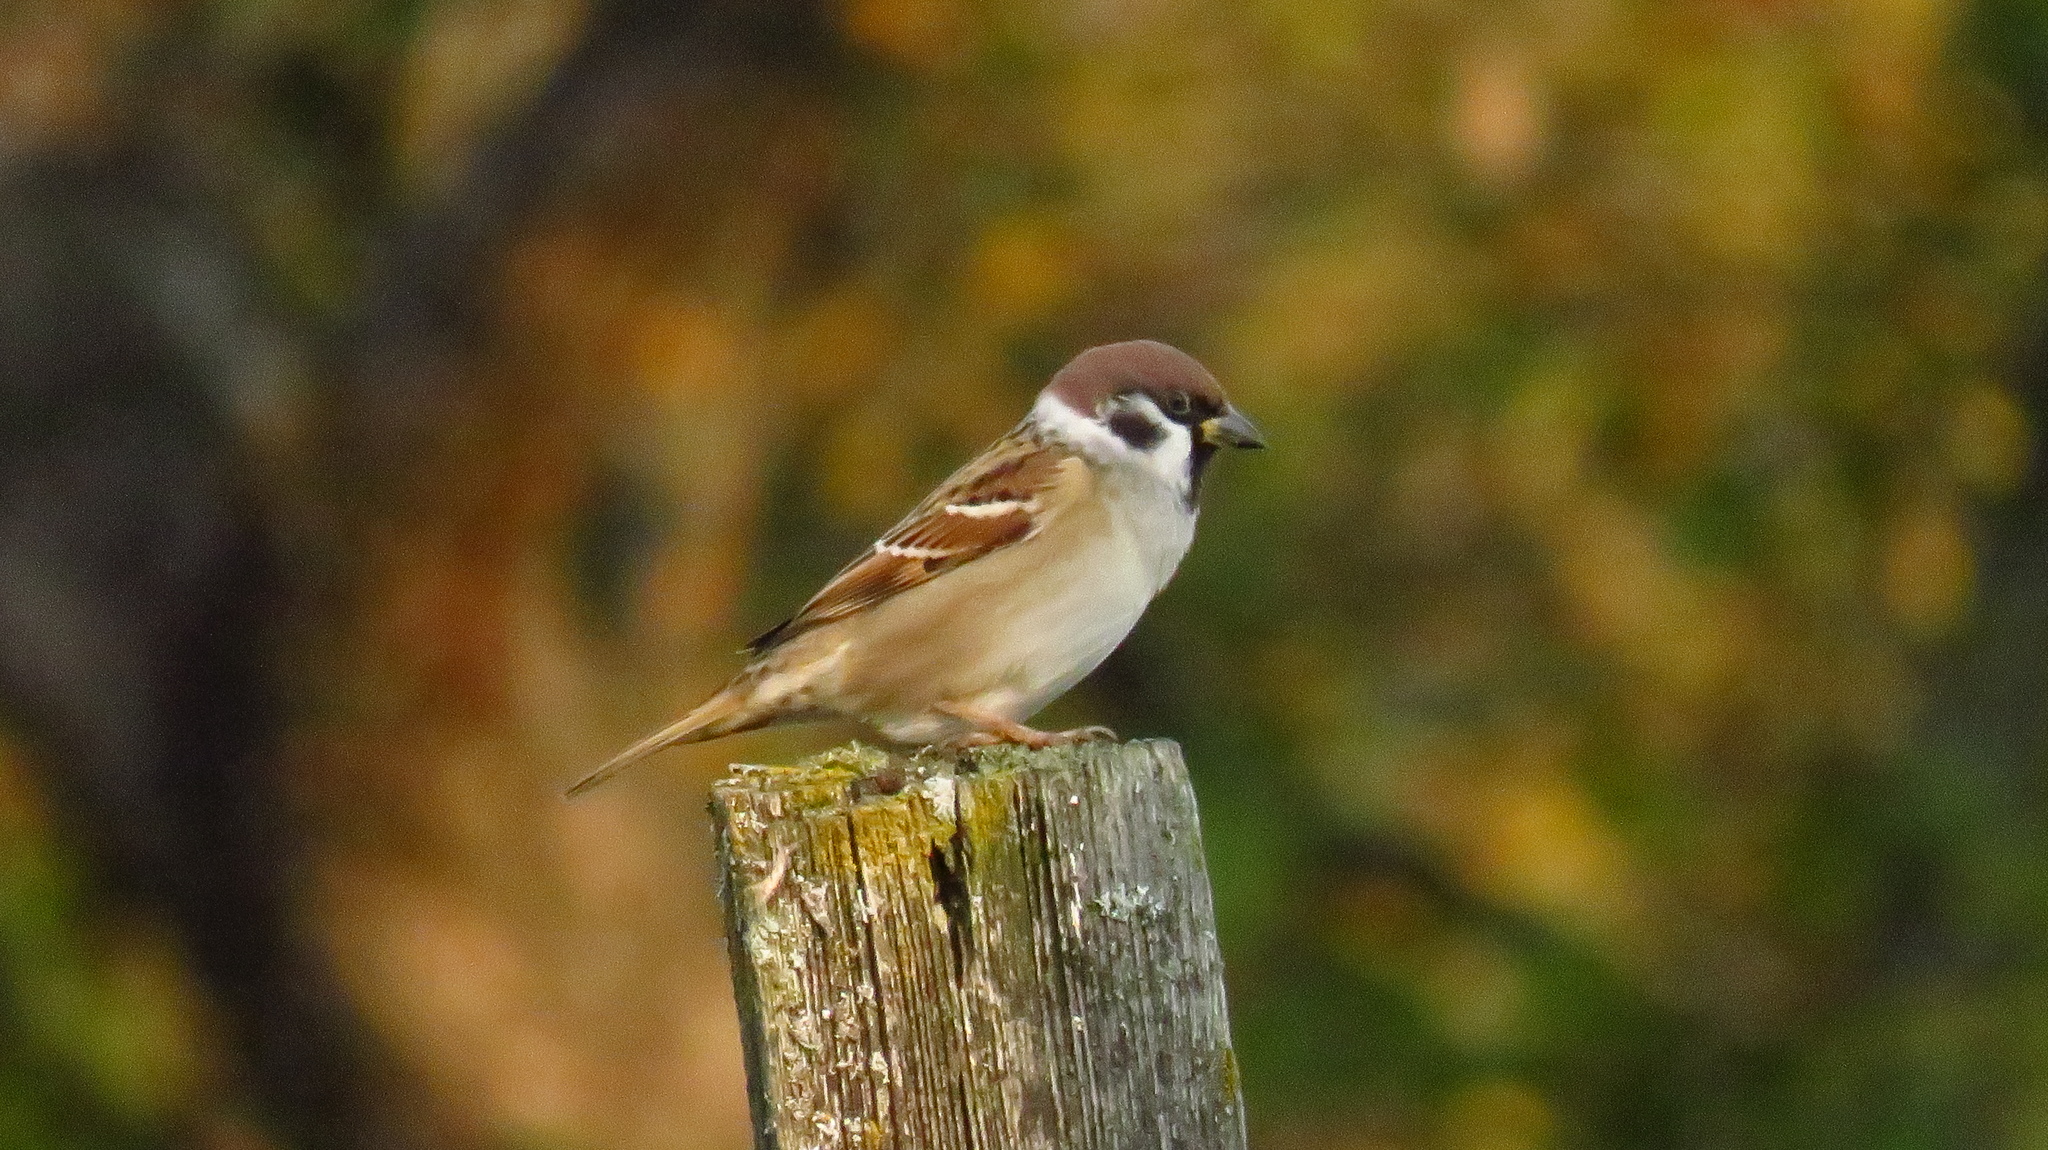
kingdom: Animalia
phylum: Chordata
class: Aves
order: Passeriformes
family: Passeridae
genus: Passer
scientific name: Passer montanus
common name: Eurasian tree sparrow
